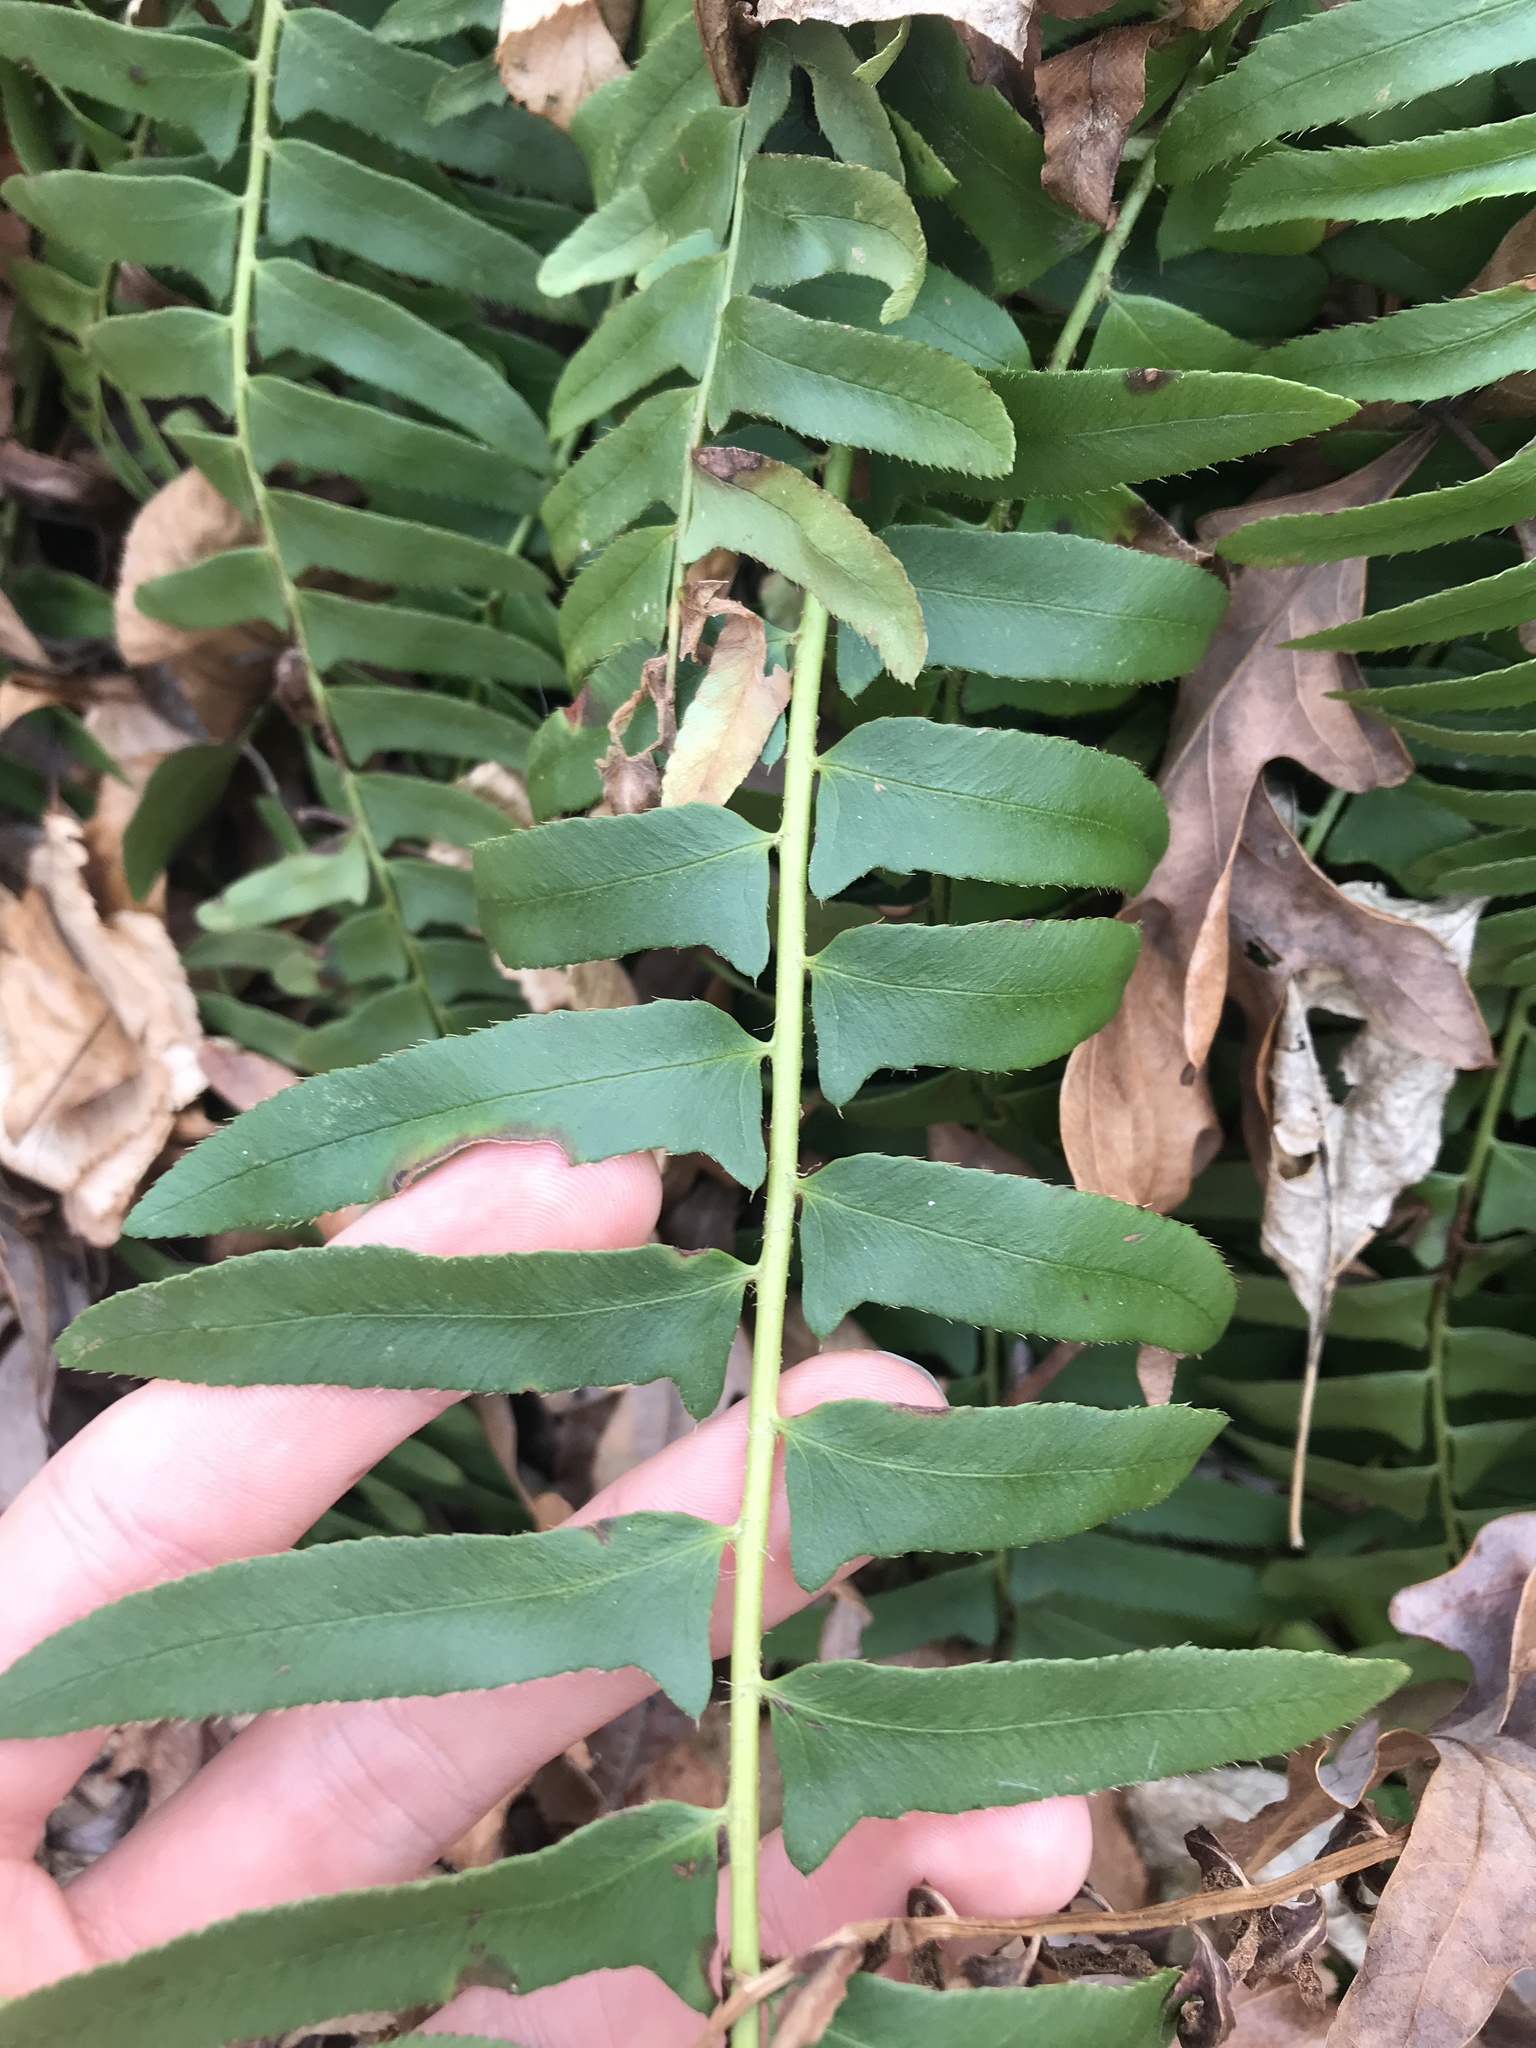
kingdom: Plantae
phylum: Tracheophyta
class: Polypodiopsida
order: Polypodiales
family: Dryopteridaceae
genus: Polystichum
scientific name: Polystichum acrostichoides
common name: Christmas fern
